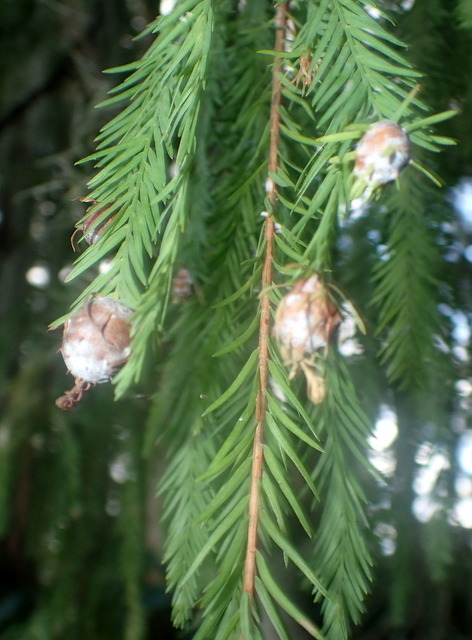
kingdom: Animalia
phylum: Arthropoda
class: Insecta
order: Diptera
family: Cecidomyiidae
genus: Taxodiomyia
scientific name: Taxodiomyia cupressiananassa
